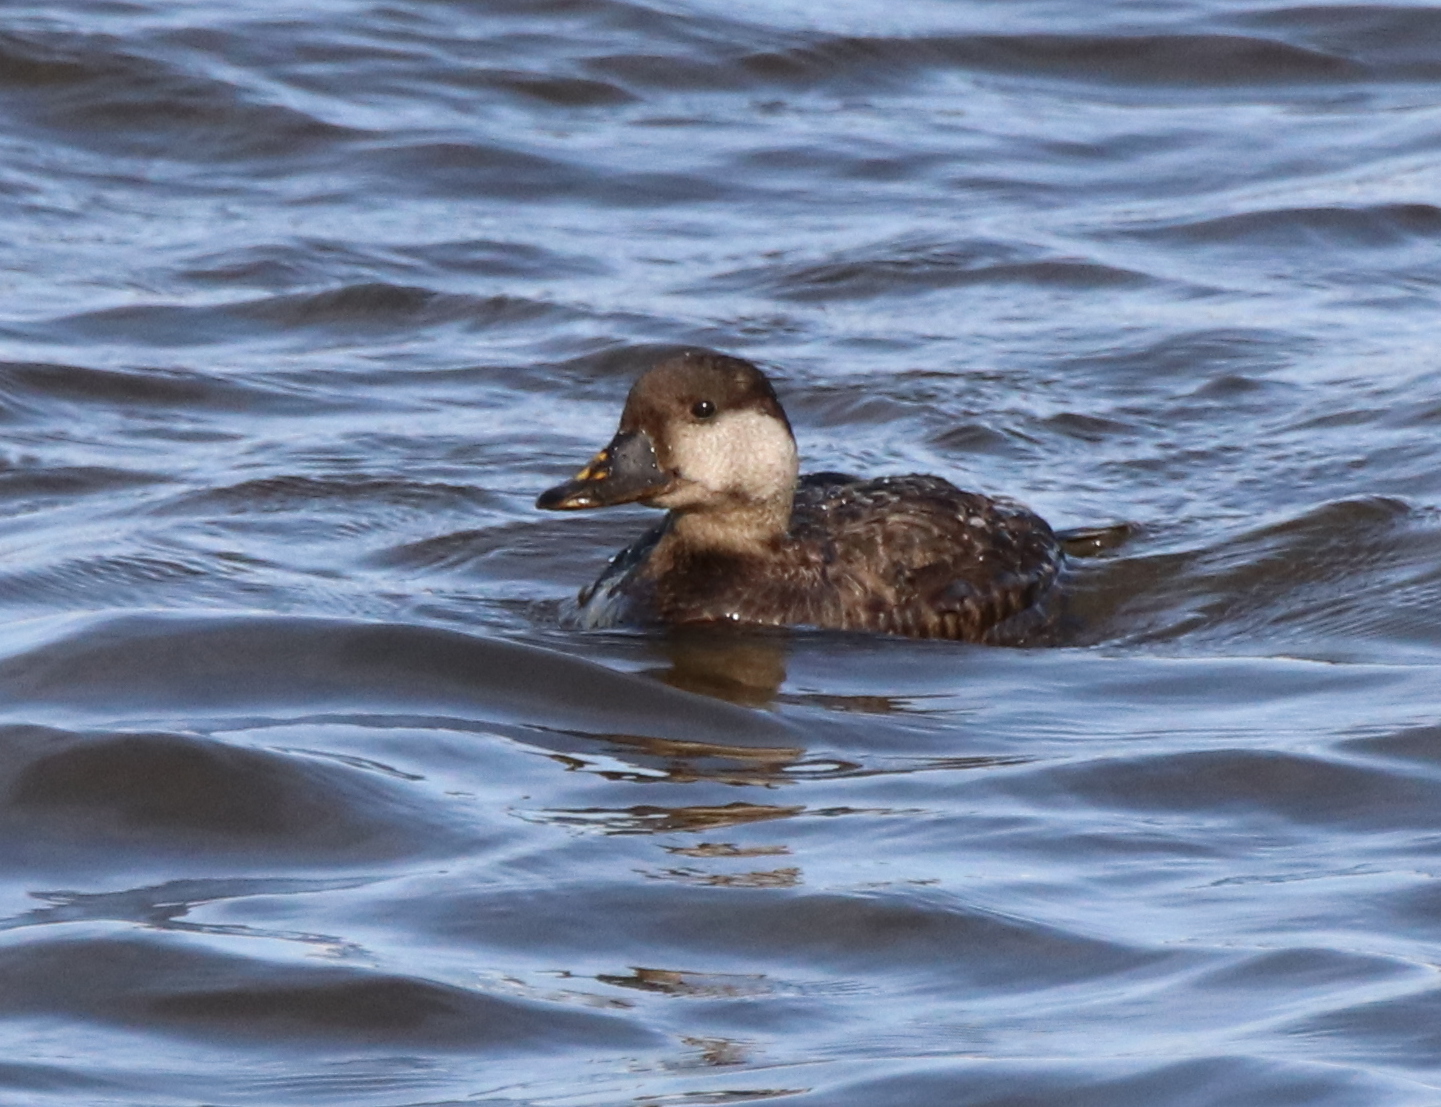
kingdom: Animalia
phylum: Chordata
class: Aves
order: Anseriformes
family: Anatidae
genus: Melanitta
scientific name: Melanitta americana
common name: Black scoter
